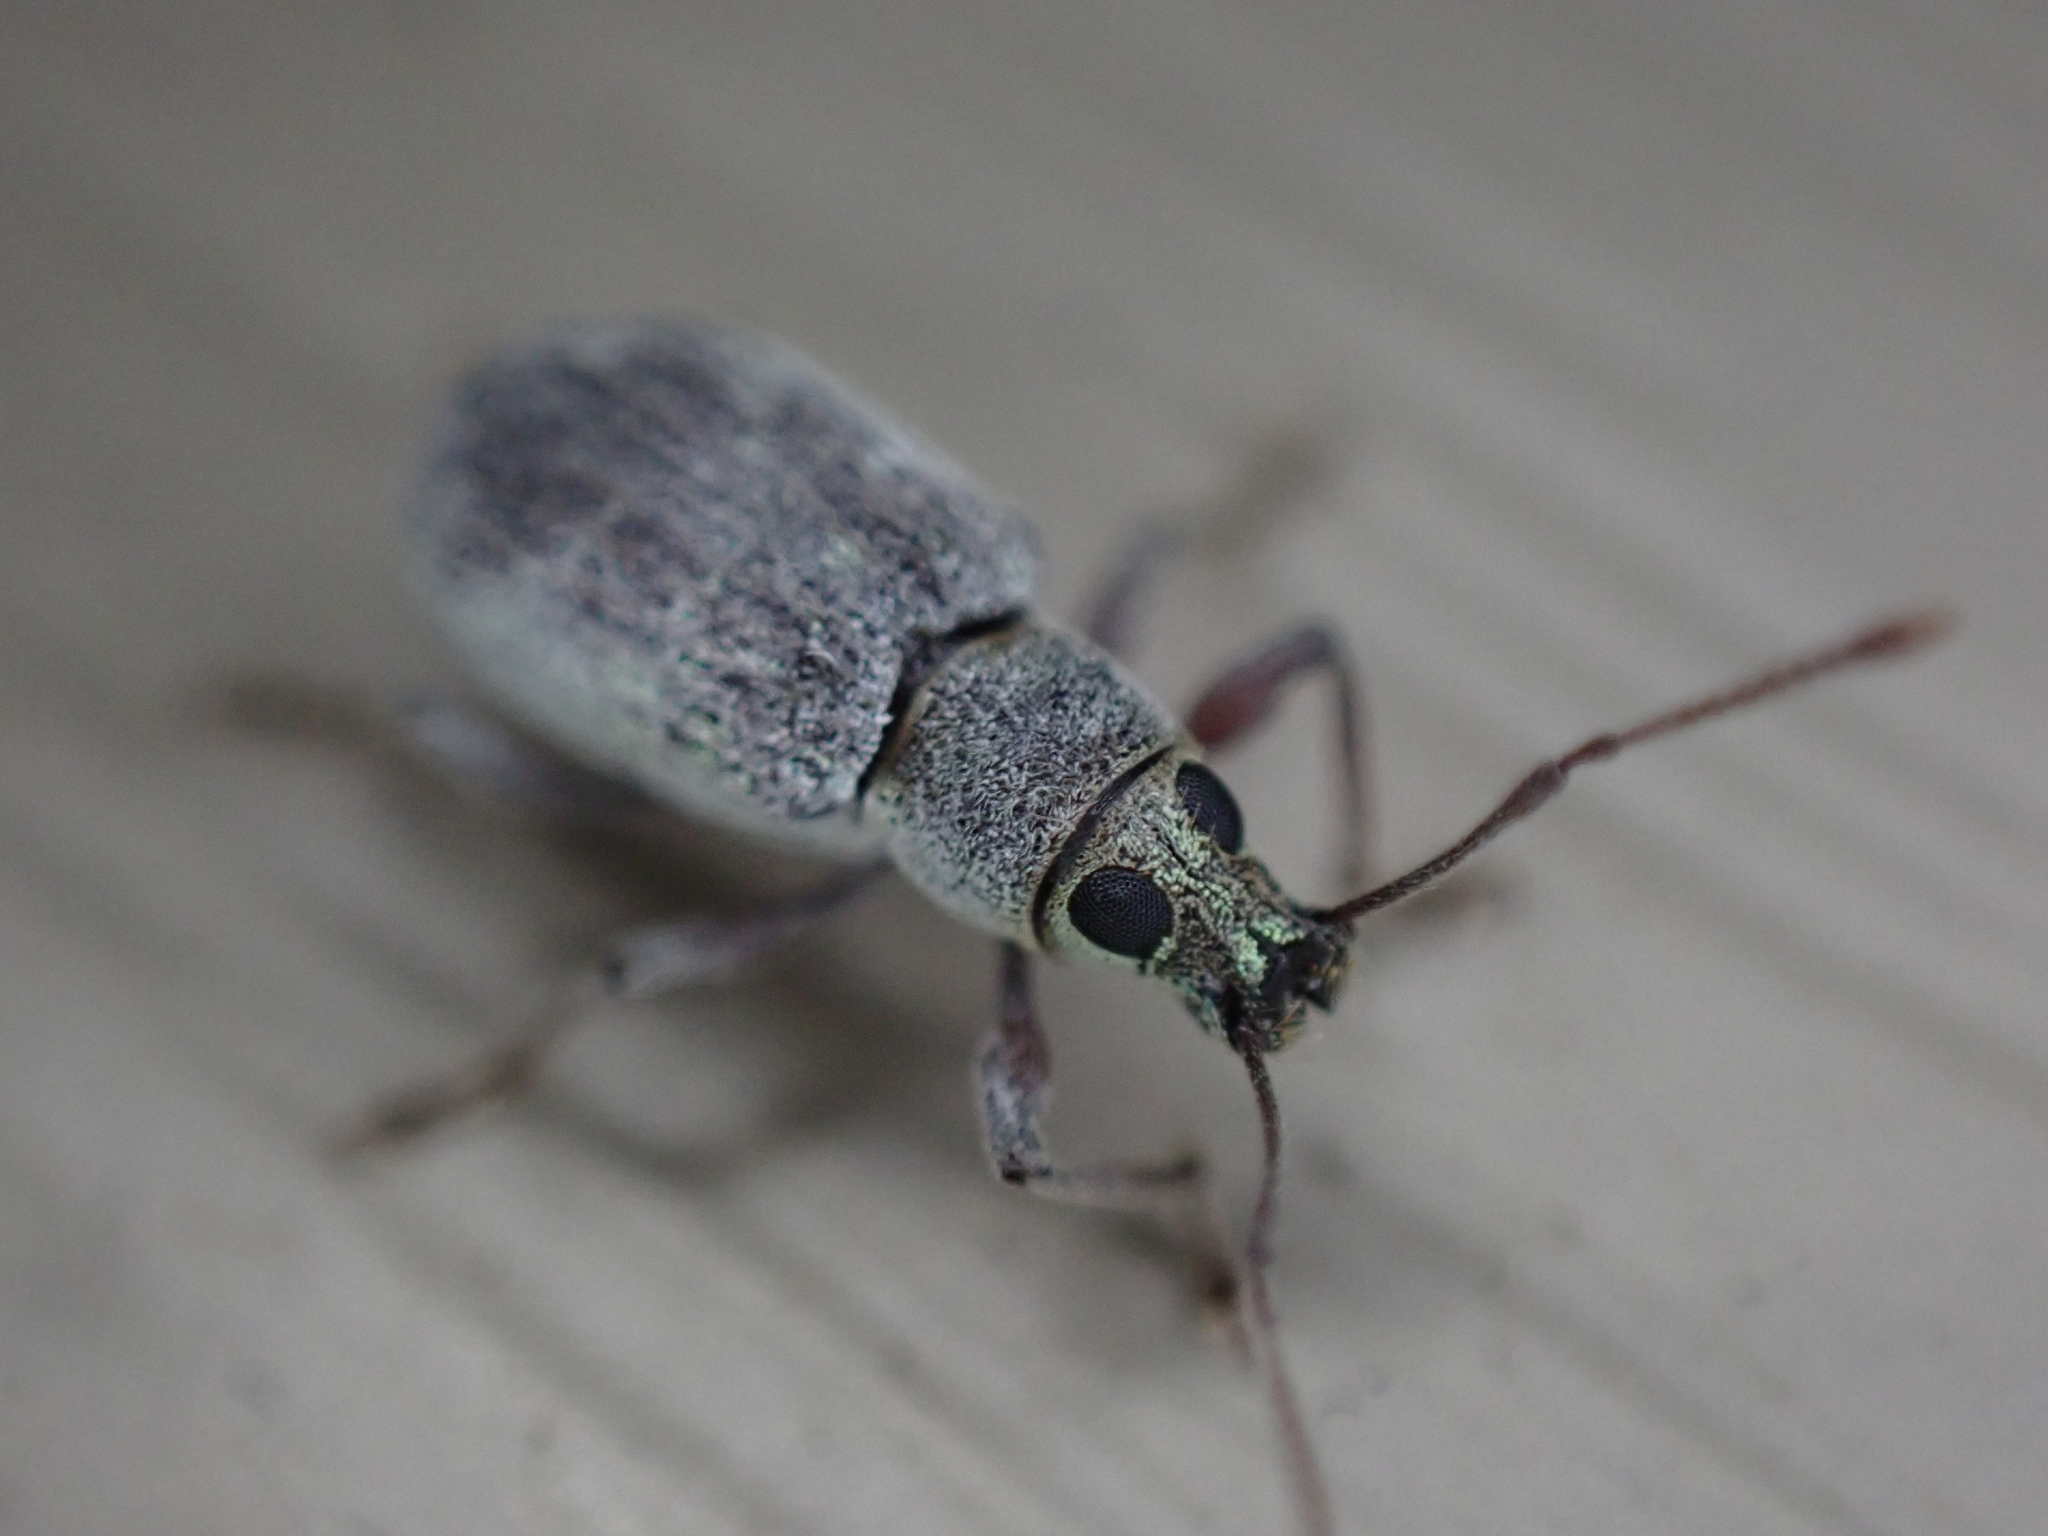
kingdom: Animalia
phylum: Arthropoda
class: Insecta
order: Coleoptera
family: Curculionidae
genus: Cyrtepistomus
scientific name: Cyrtepistomus castaneus
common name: Weevil
